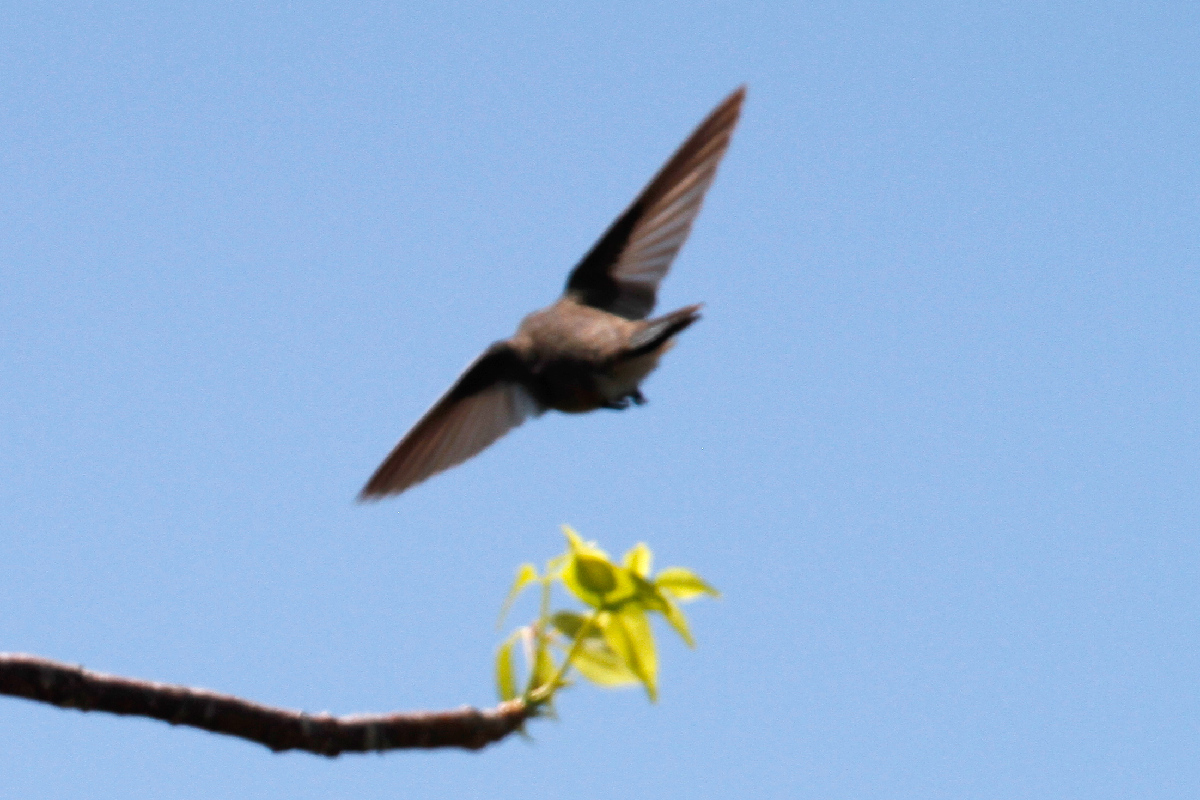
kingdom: Animalia
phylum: Chordata
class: Aves
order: Apodiformes
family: Trochilidae
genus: Nesophlox
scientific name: Nesophlox evelynae
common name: Bahama woodstar
